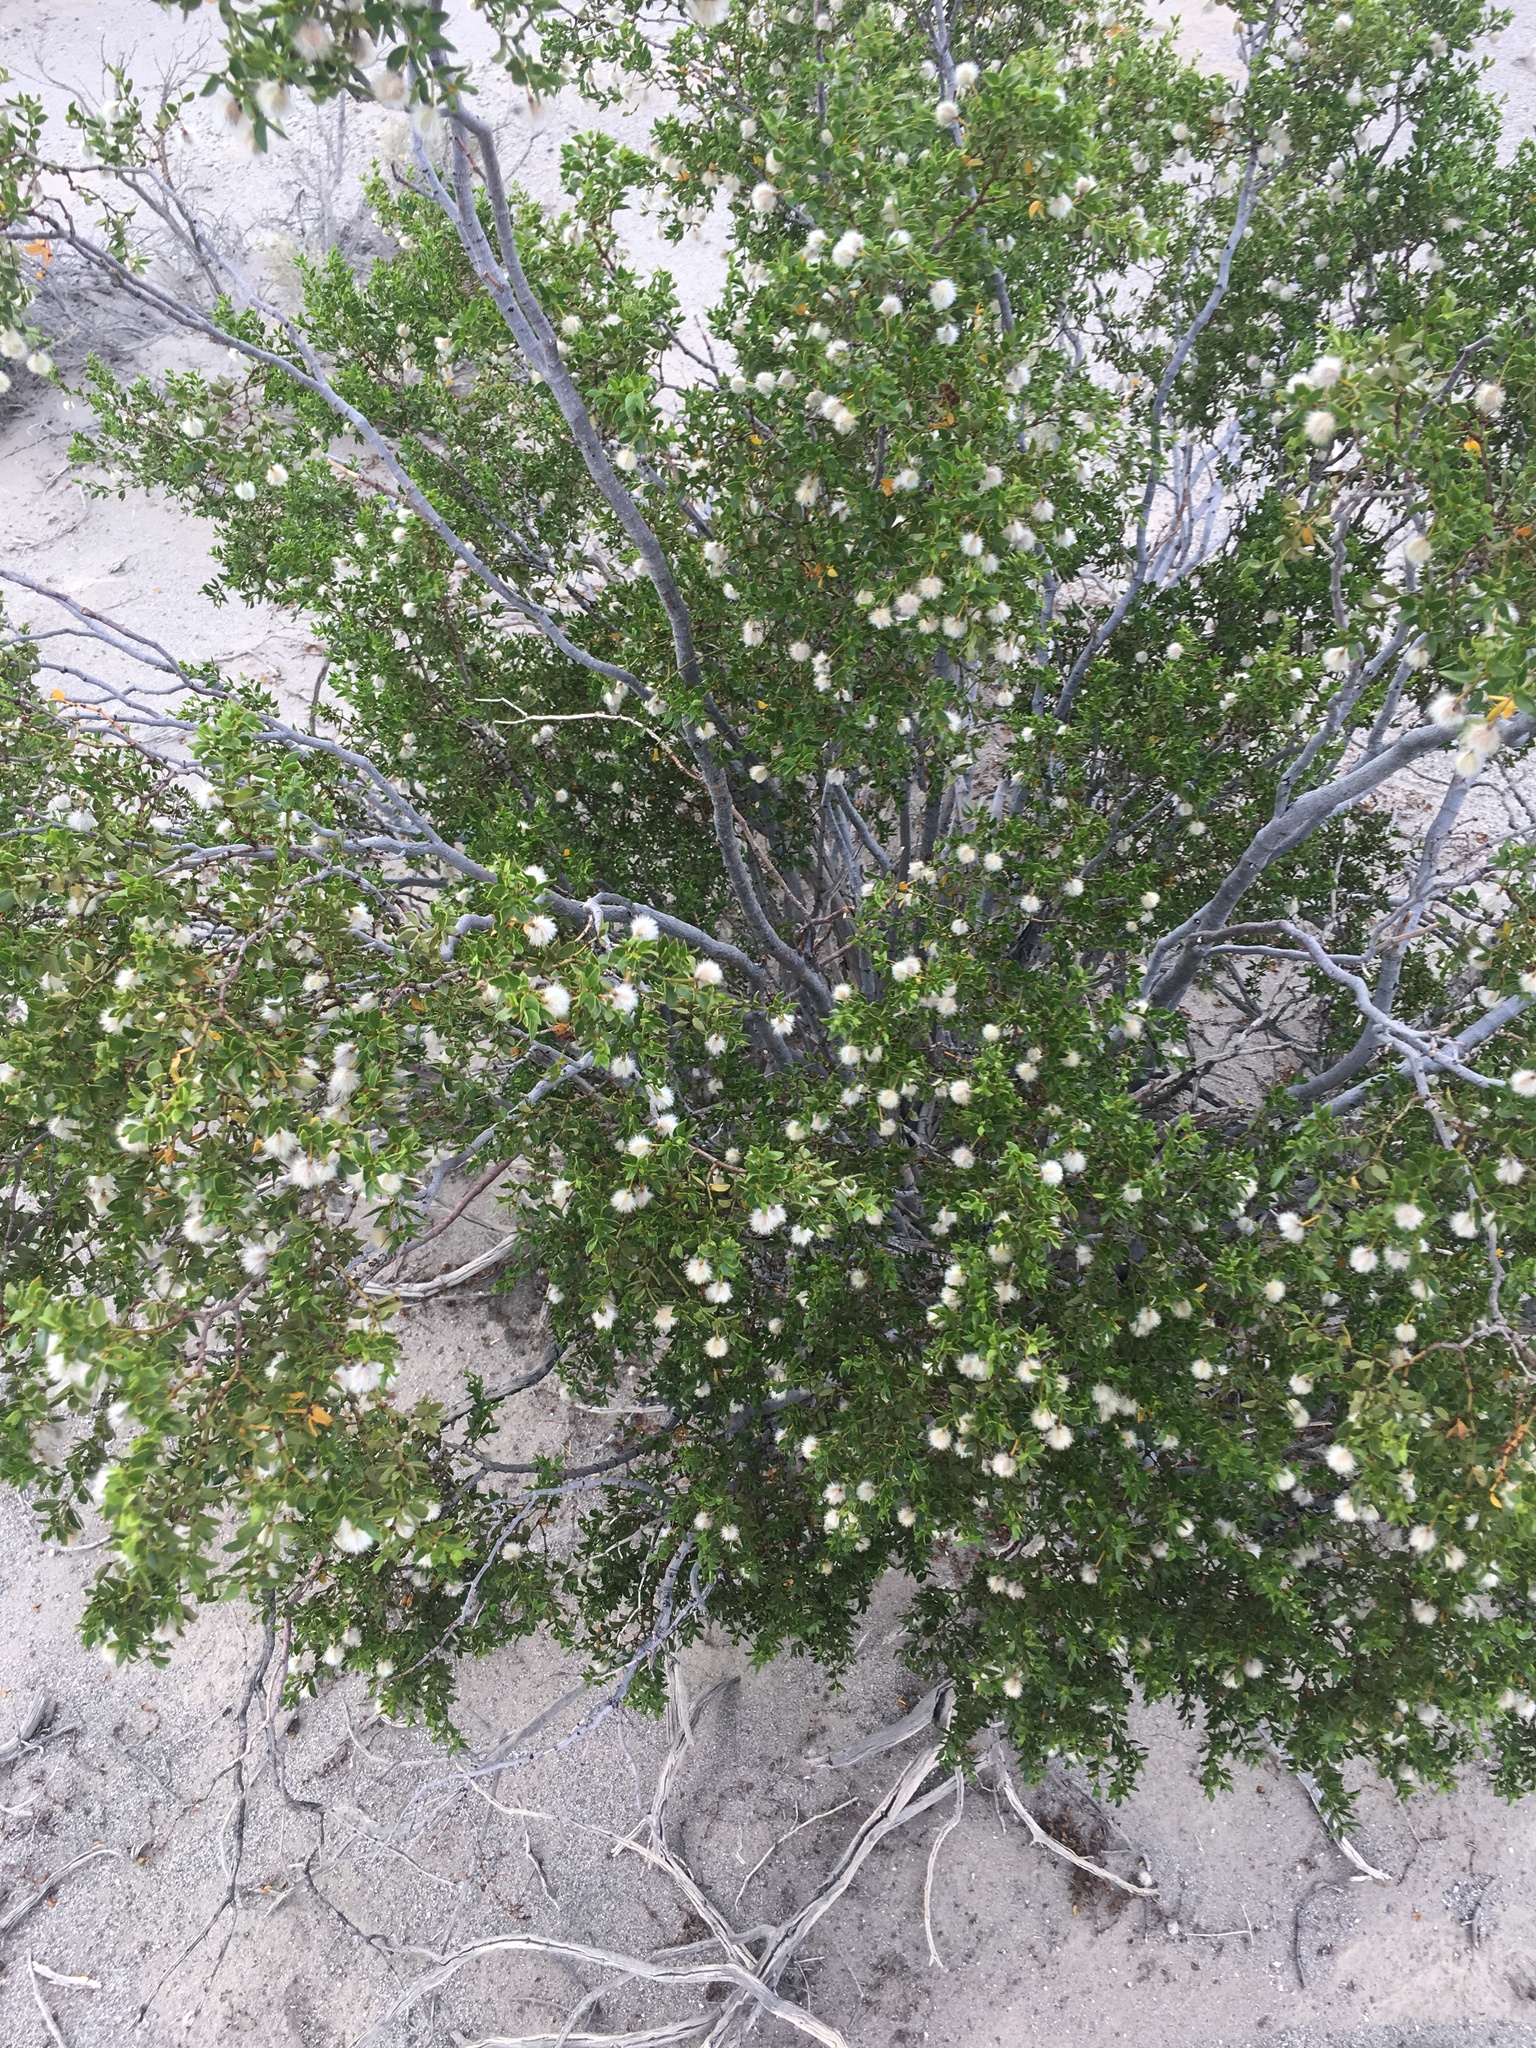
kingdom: Plantae
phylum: Tracheophyta
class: Magnoliopsida
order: Zygophyllales
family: Zygophyllaceae
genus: Larrea
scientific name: Larrea tridentata
